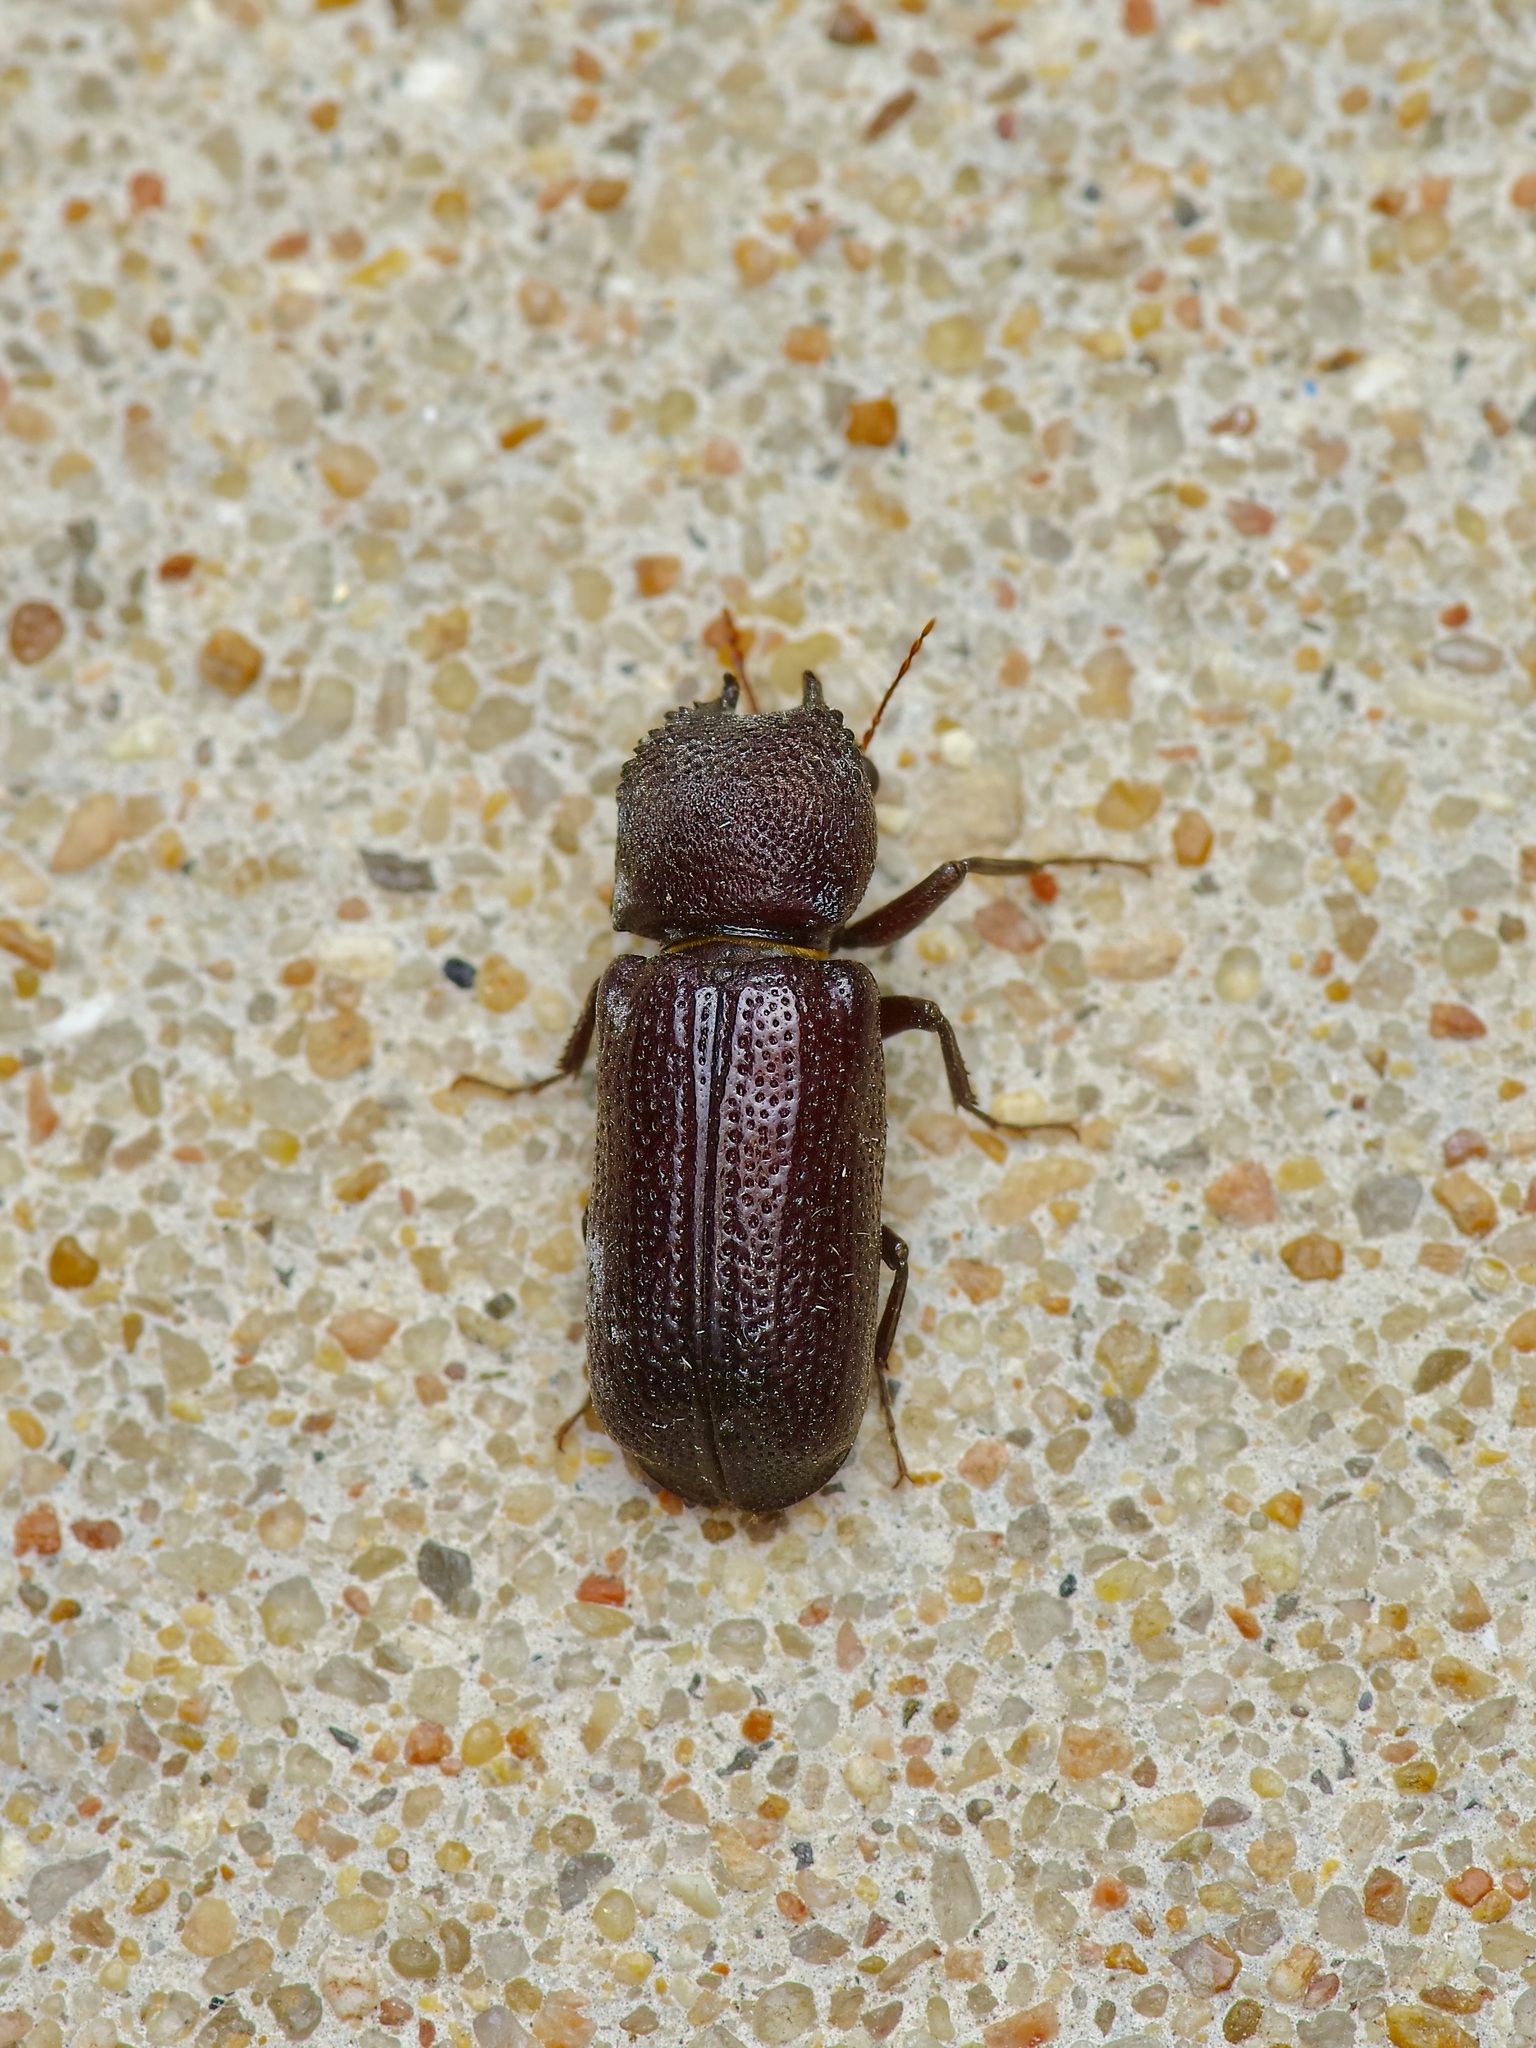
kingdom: Animalia
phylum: Arthropoda
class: Insecta
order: Coleoptera
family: Bostrichidae
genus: Apatides
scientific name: Apatides fortis
